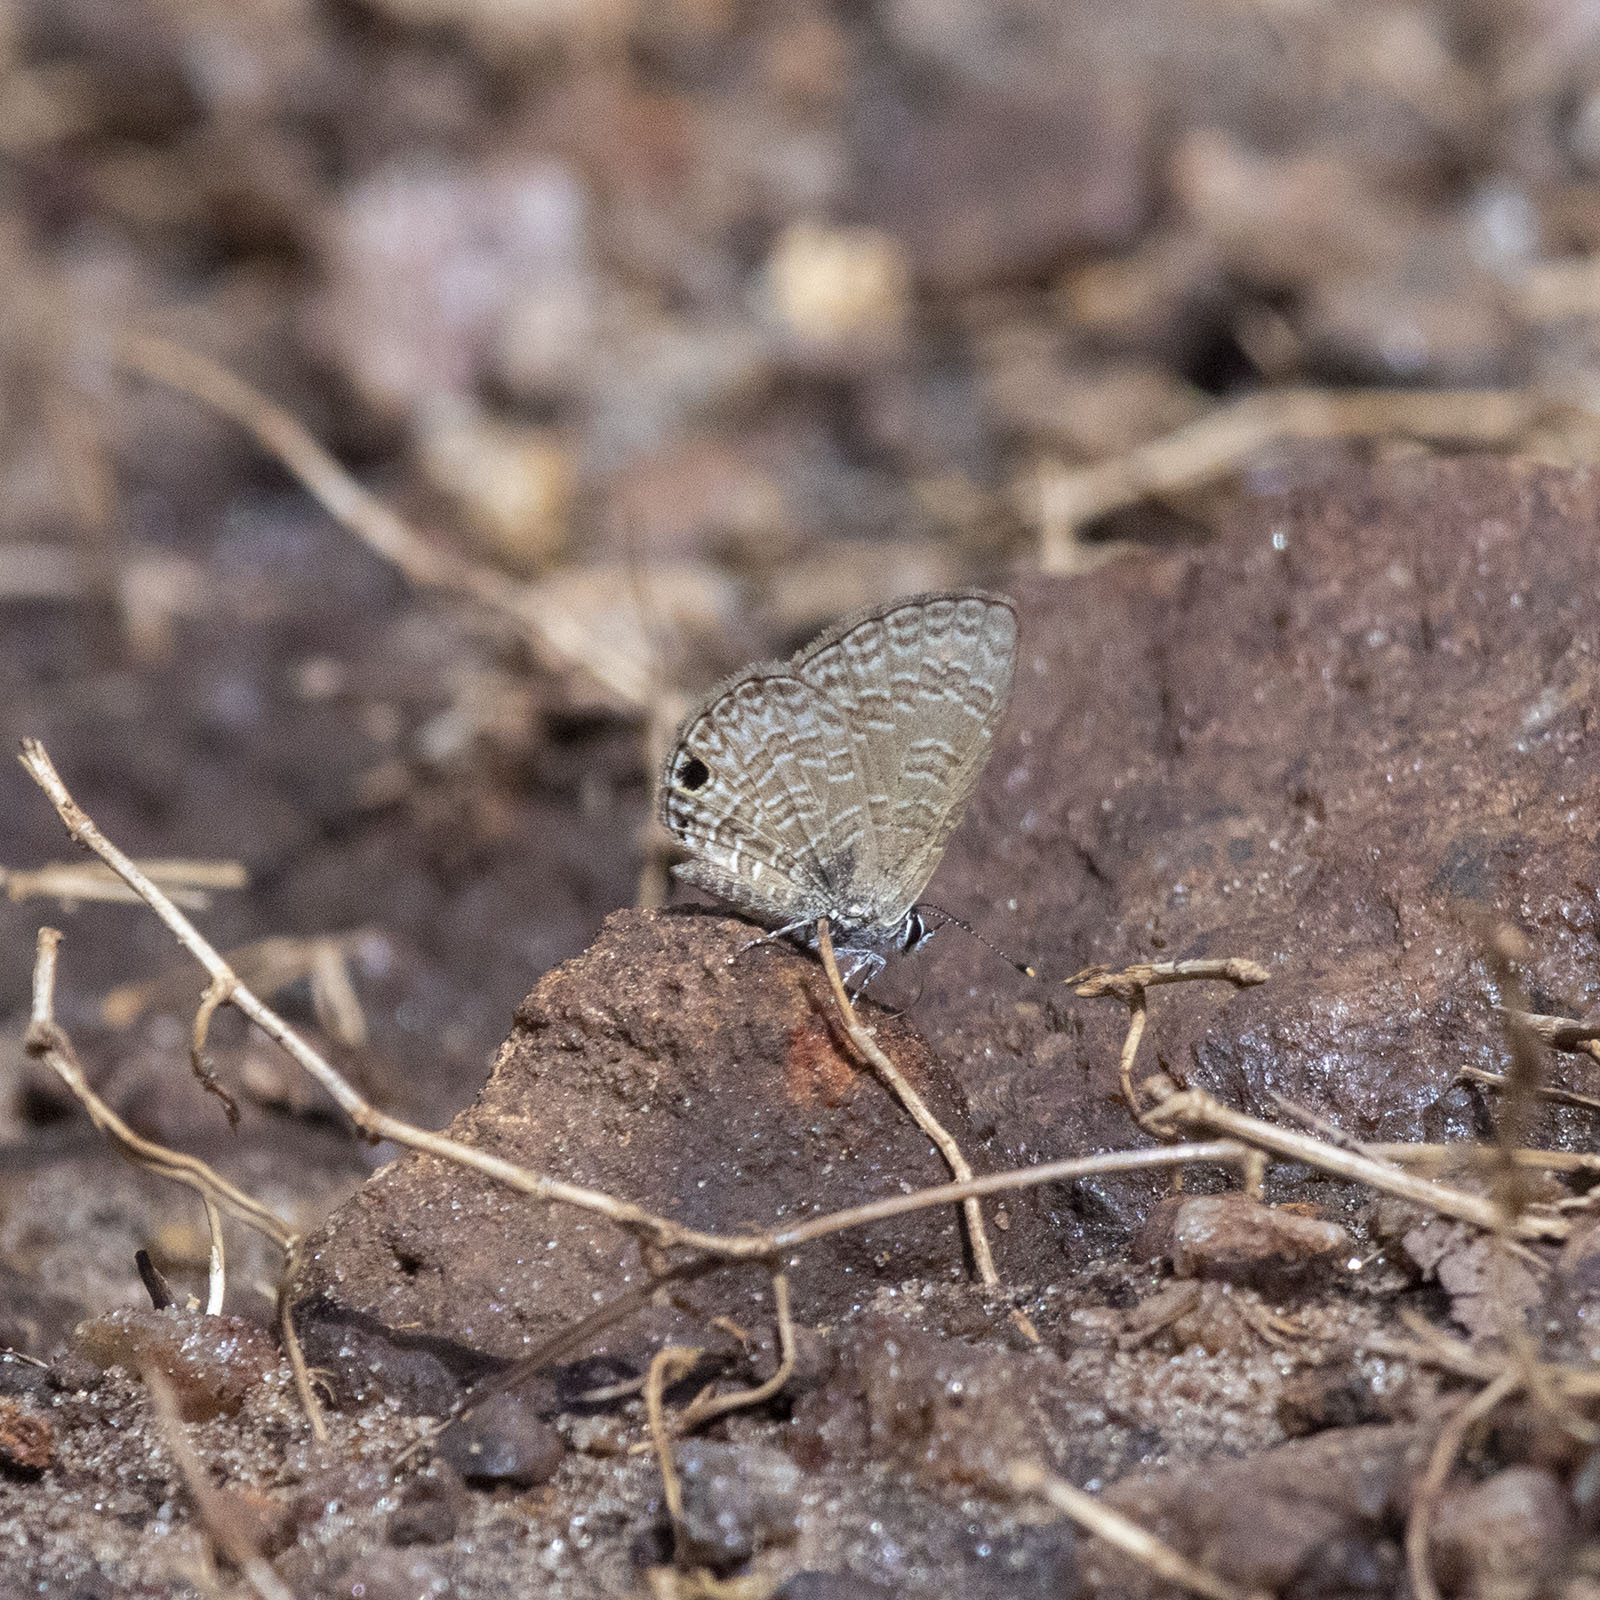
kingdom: Animalia
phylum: Arthropoda
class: Insecta
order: Lepidoptera
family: Lycaenidae
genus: Prosotas
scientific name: Prosotas dubiosa
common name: Tailless lineblue
